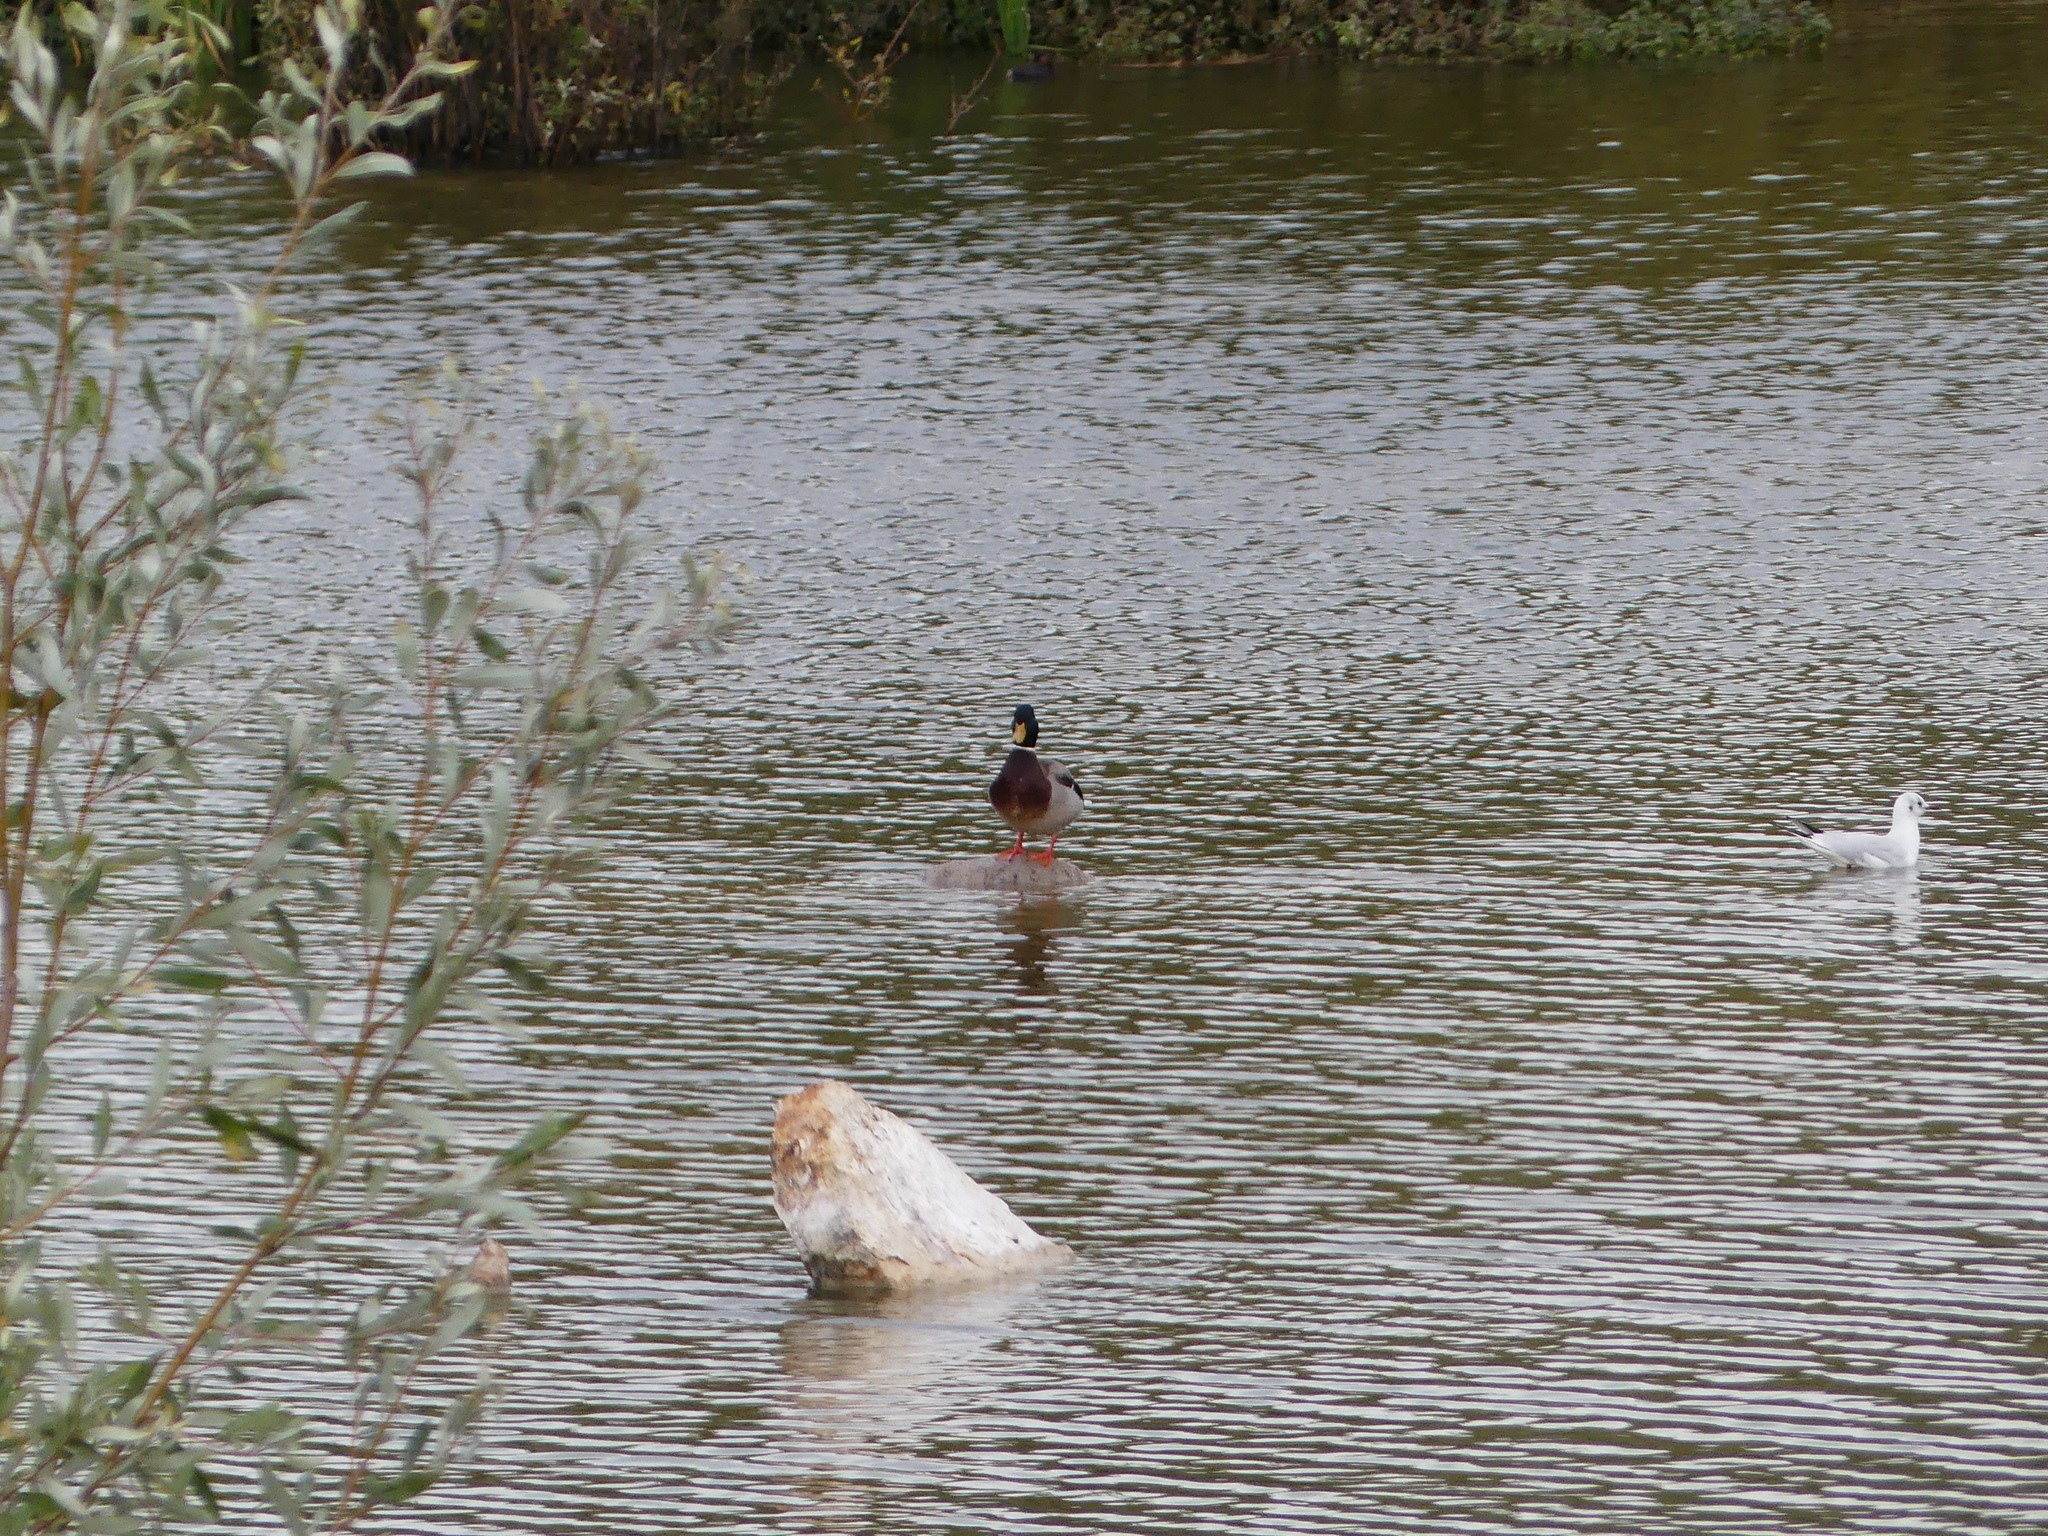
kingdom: Animalia
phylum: Chordata
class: Aves
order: Anseriformes
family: Anatidae
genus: Anas
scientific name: Anas platyrhynchos
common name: Mallard
